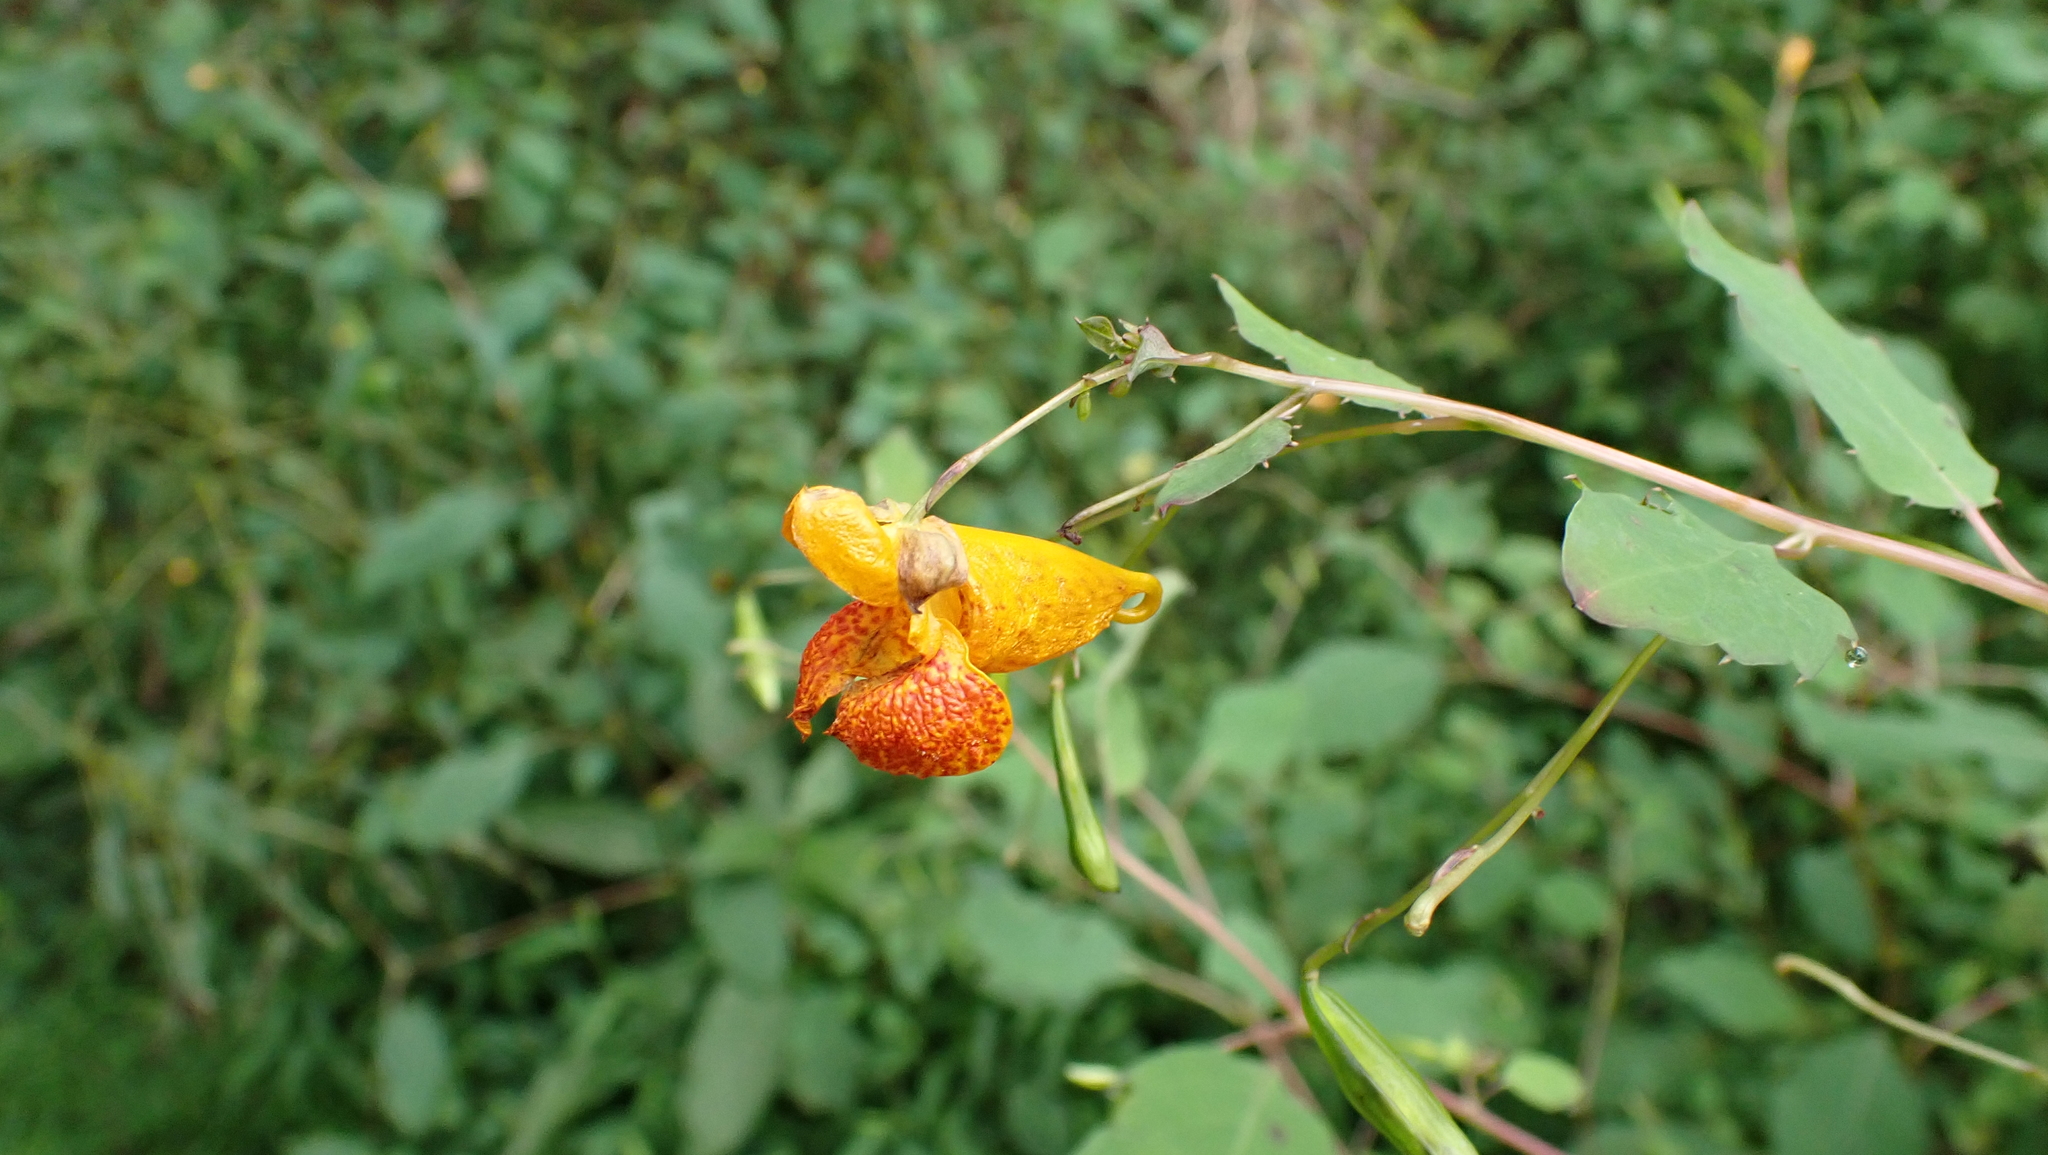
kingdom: Plantae
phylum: Tracheophyta
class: Magnoliopsida
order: Ericales
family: Balsaminaceae
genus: Impatiens
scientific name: Impatiens capensis
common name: Orange balsam
